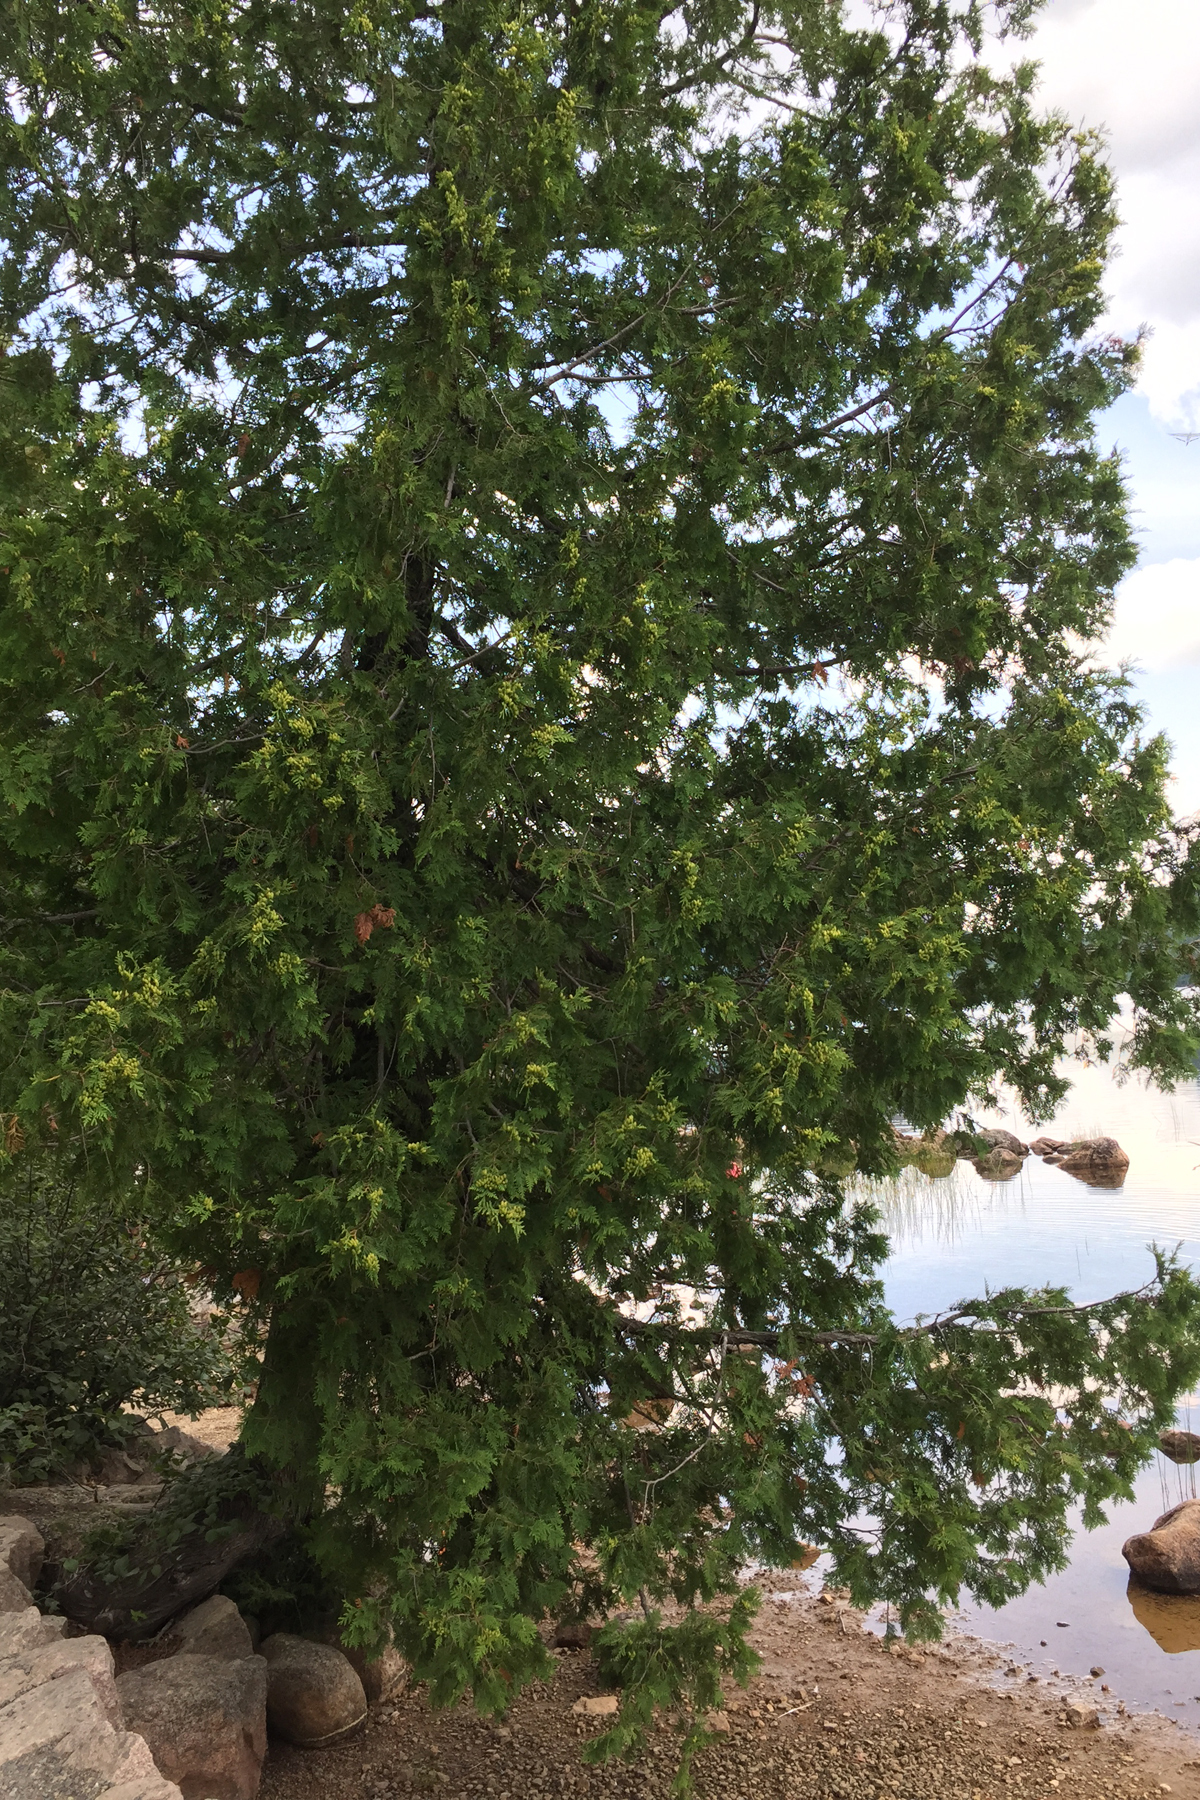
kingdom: Plantae
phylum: Tracheophyta
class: Pinopsida
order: Pinales
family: Cupressaceae
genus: Thuja
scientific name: Thuja occidentalis
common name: Northern white-cedar
